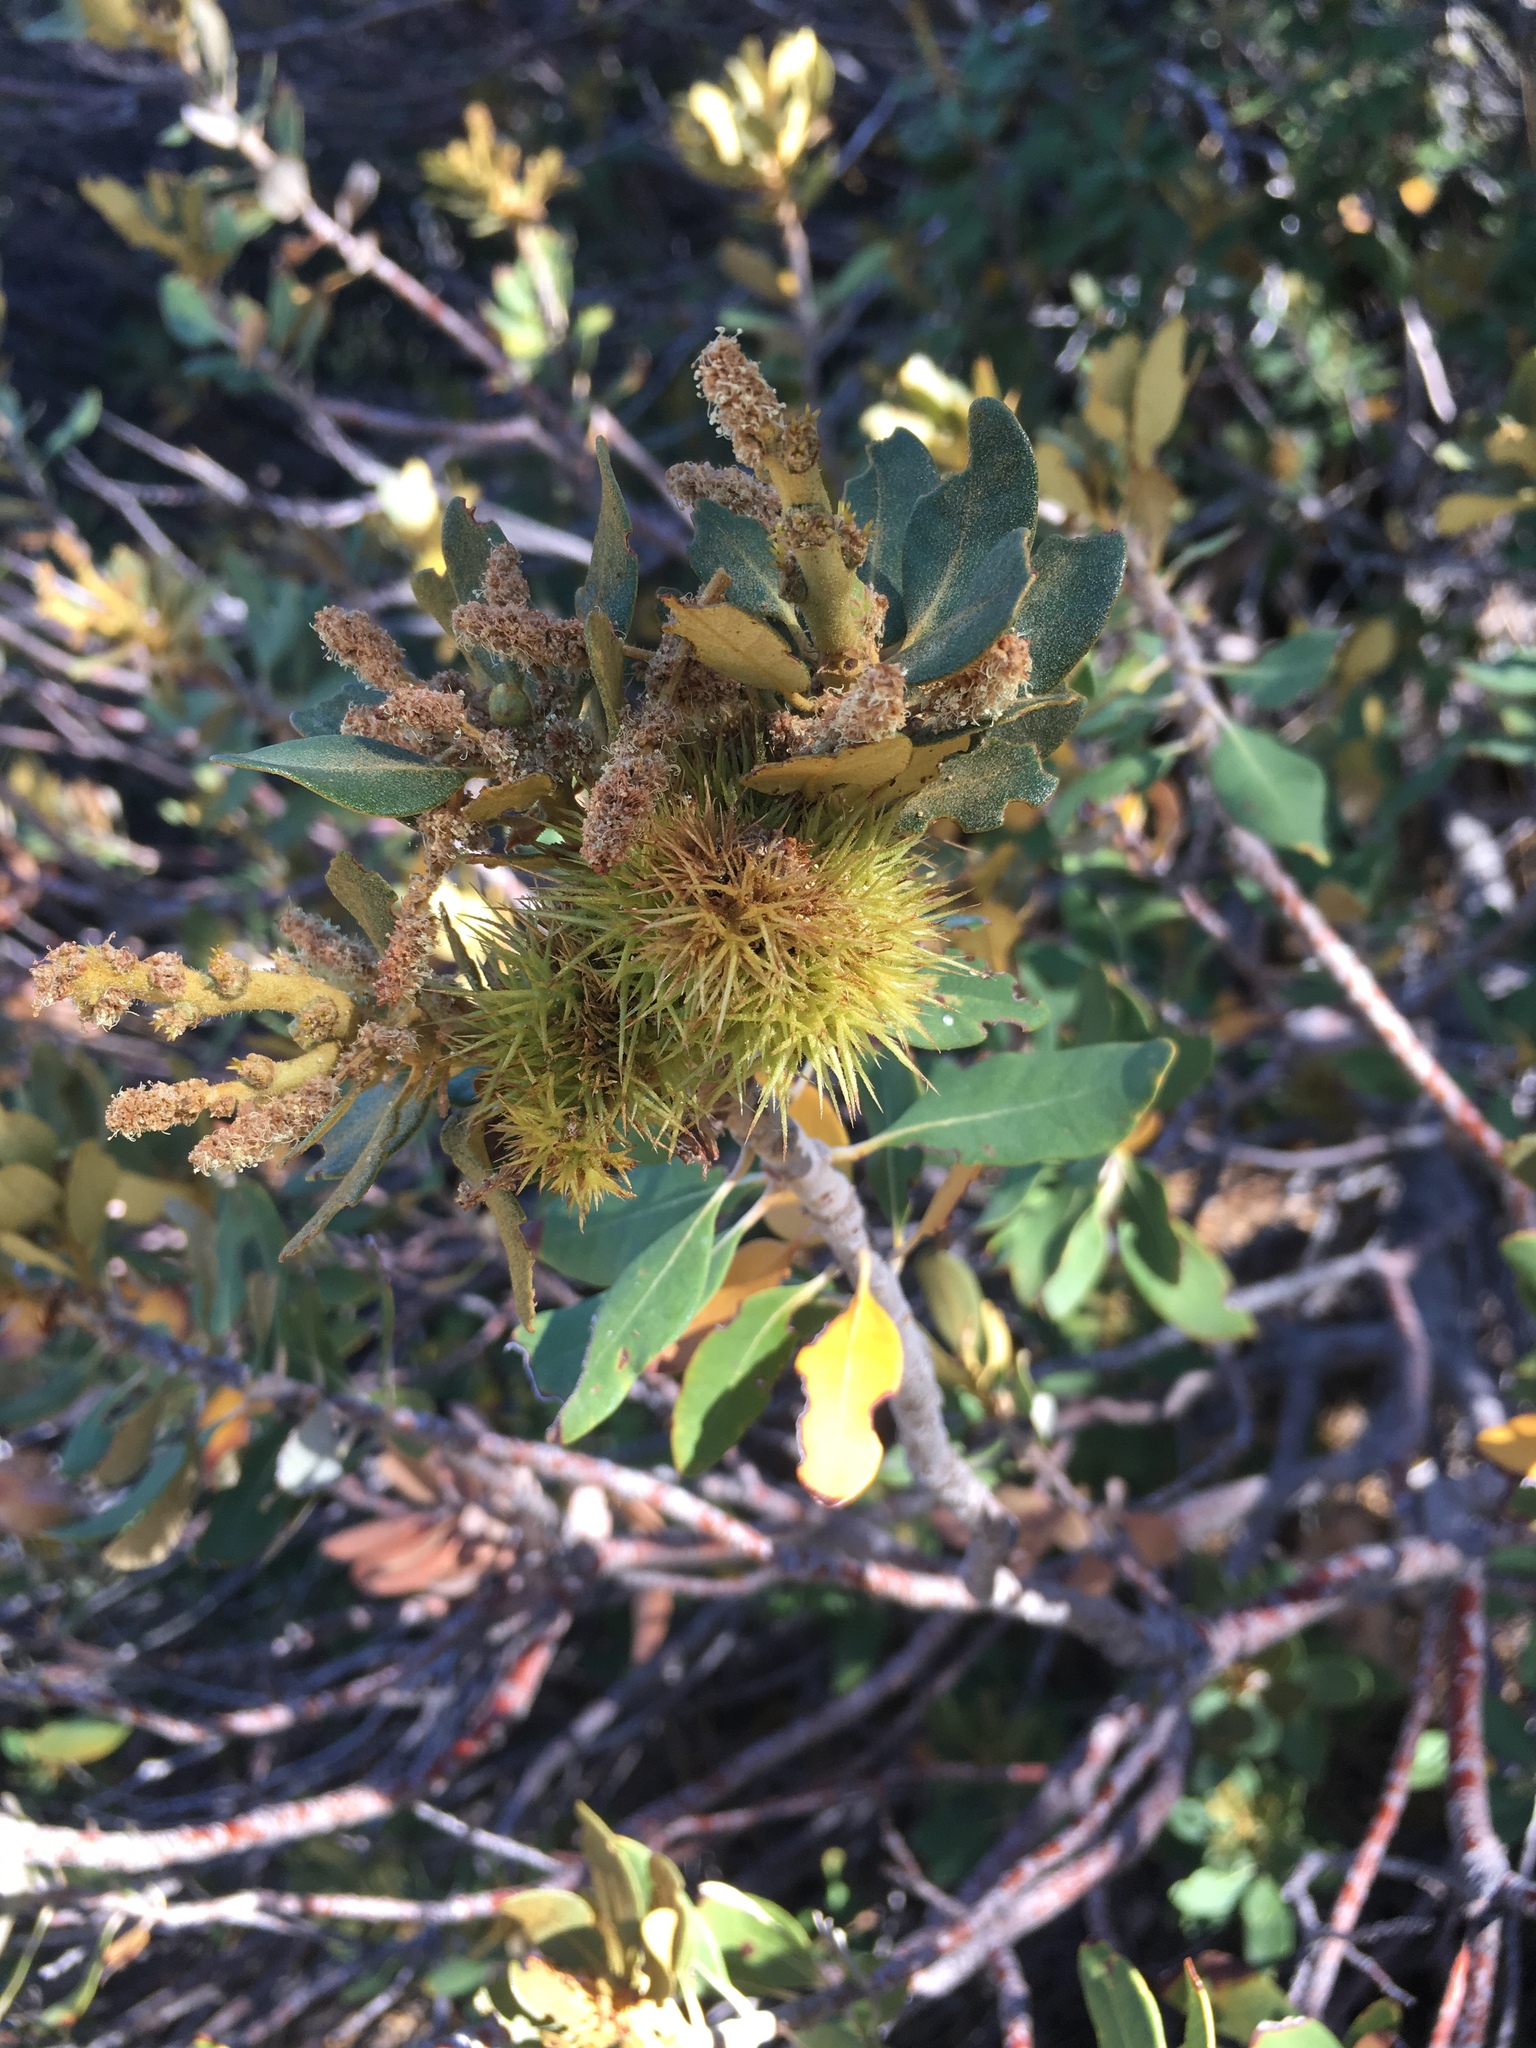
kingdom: Plantae
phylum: Tracheophyta
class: Magnoliopsida
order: Fagales
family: Fagaceae
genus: Chrysolepis
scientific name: Chrysolepis sempervirens
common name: Bush chinquapin
